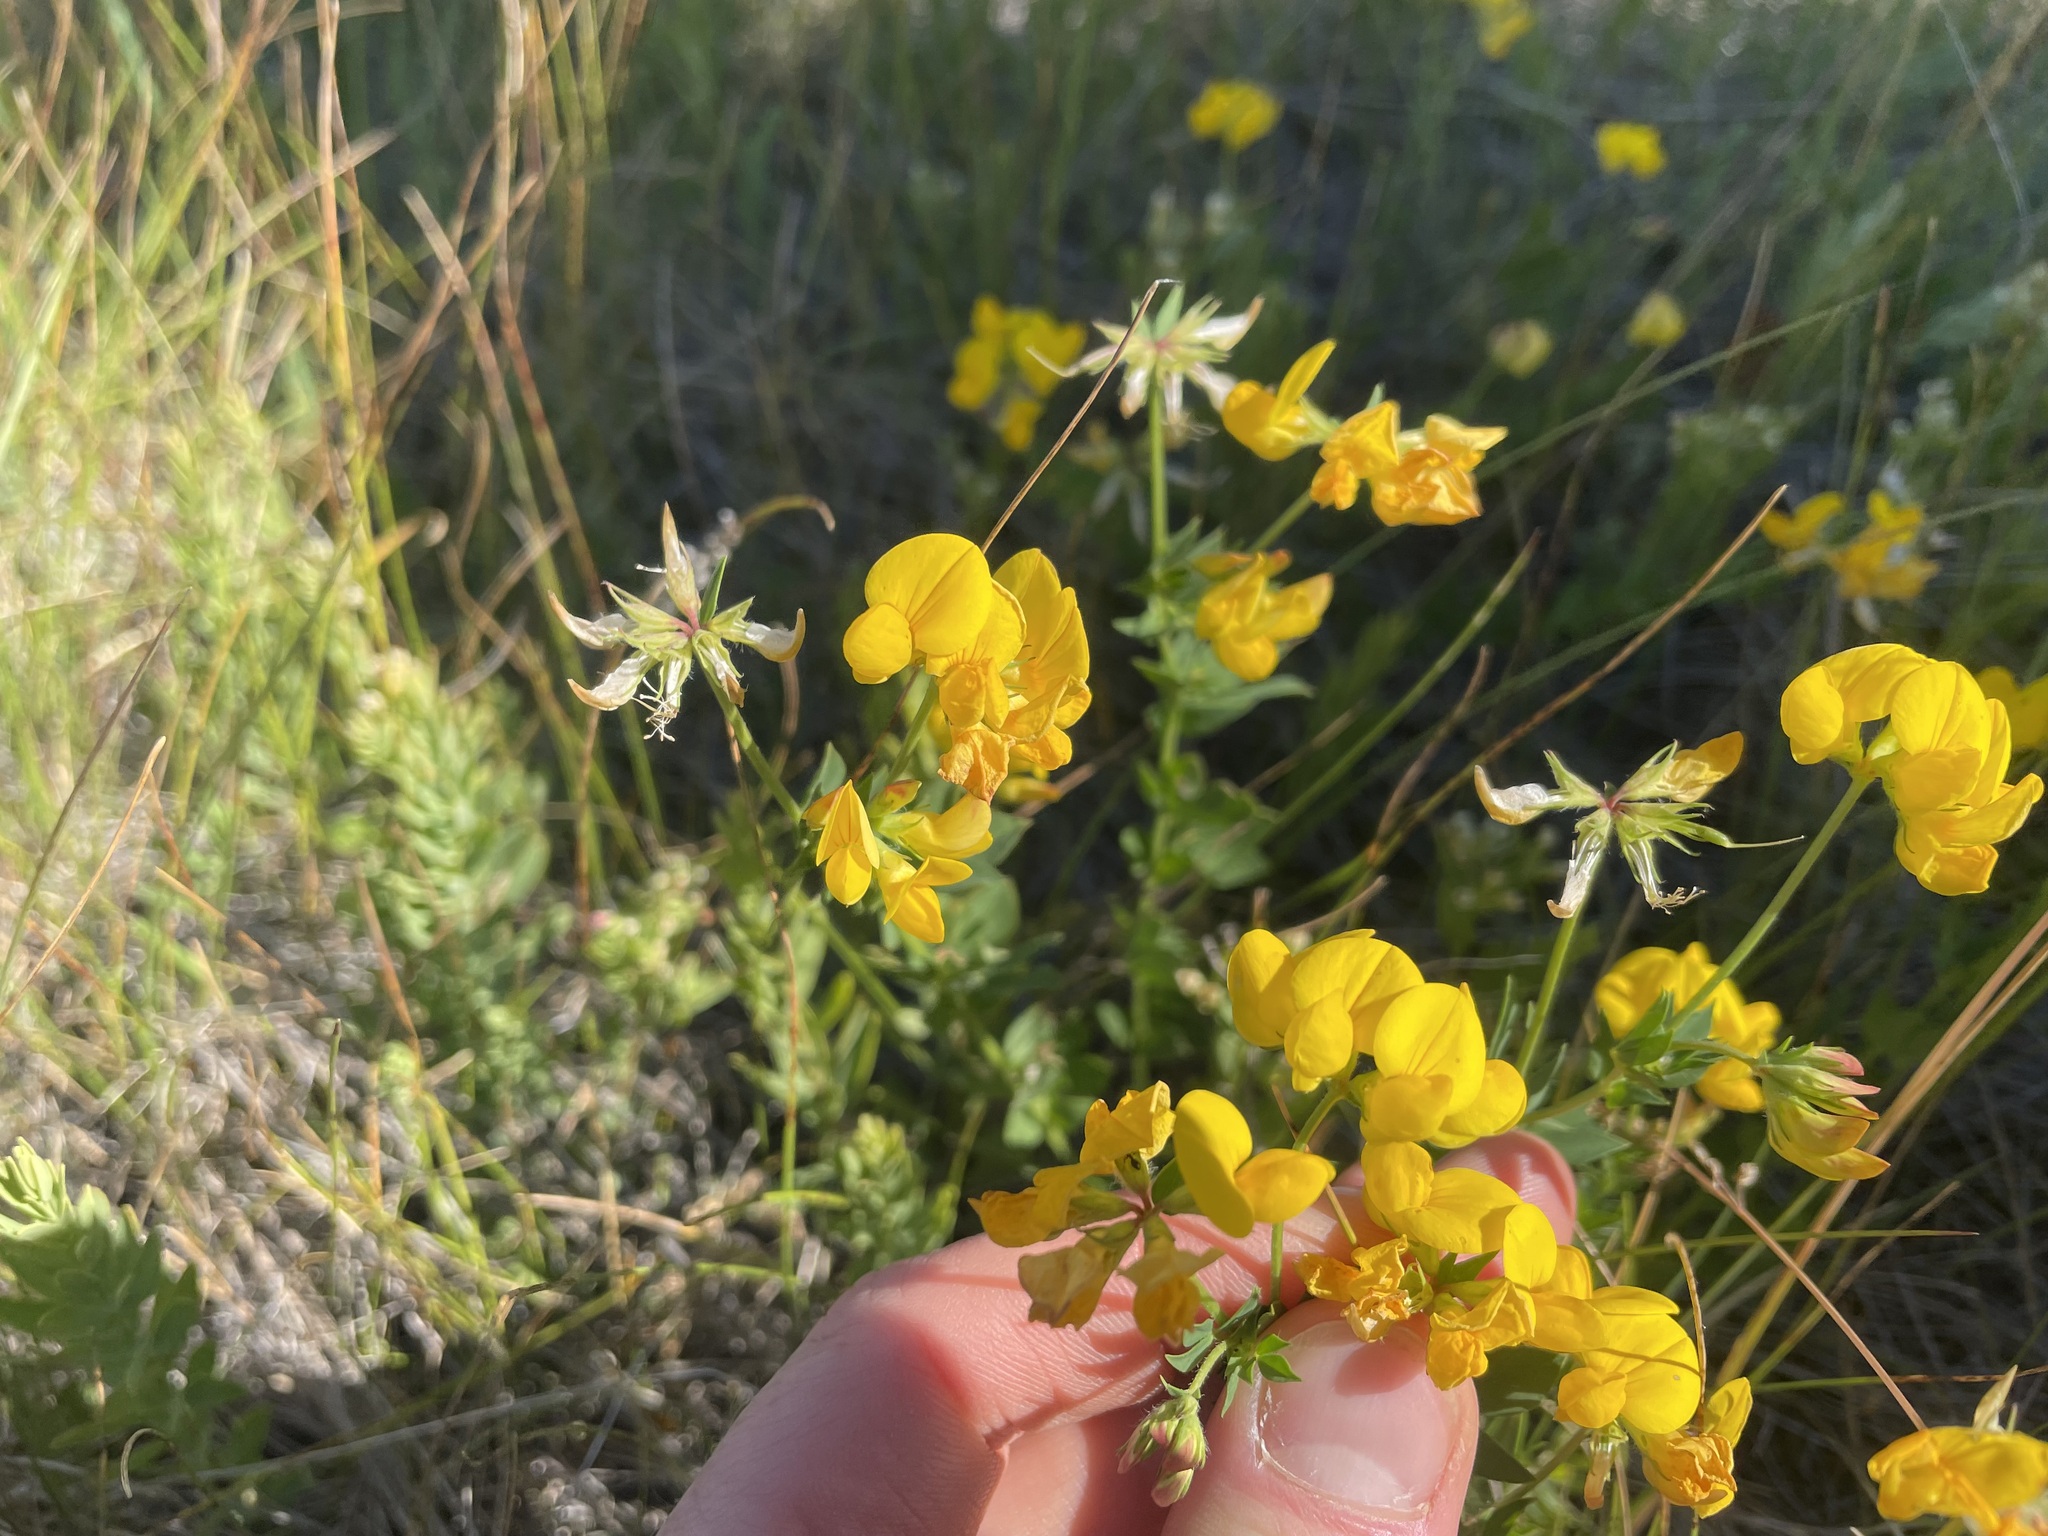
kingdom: Plantae
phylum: Tracheophyta
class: Magnoliopsida
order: Fabales
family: Fabaceae
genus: Lotus
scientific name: Lotus corniculatus
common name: Common bird's-foot-trefoil
